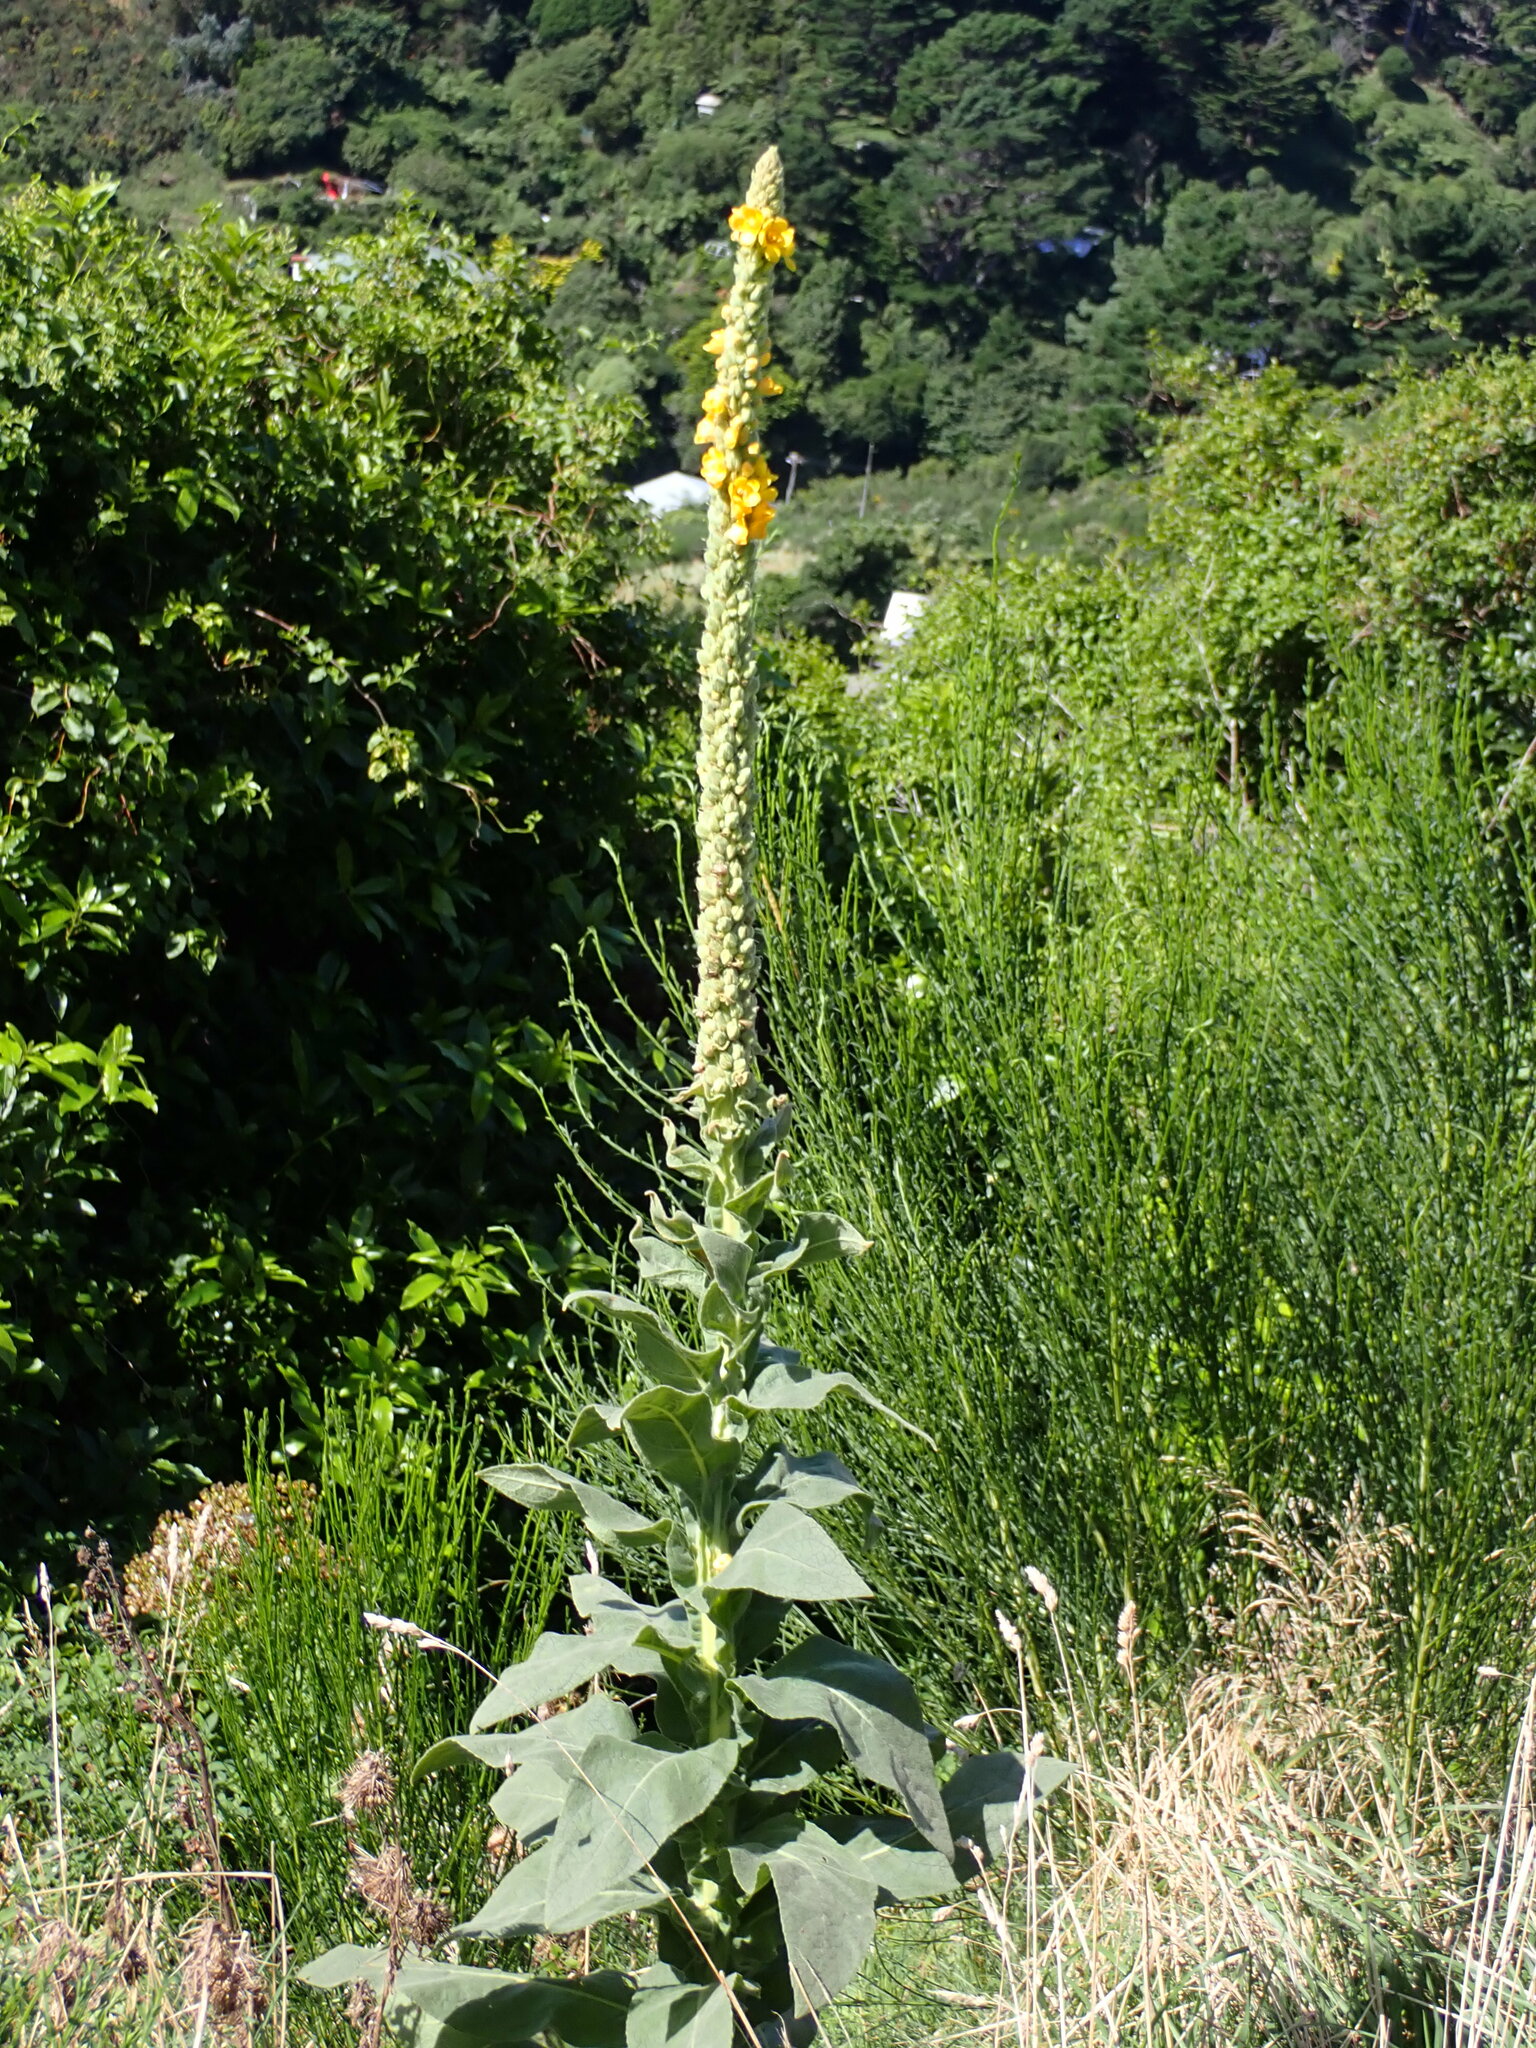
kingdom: Plantae
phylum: Tracheophyta
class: Magnoliopsida
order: Lamiales
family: Scrophulariaceae
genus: Verbascum
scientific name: Verbascum thapsus
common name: Common mullein
